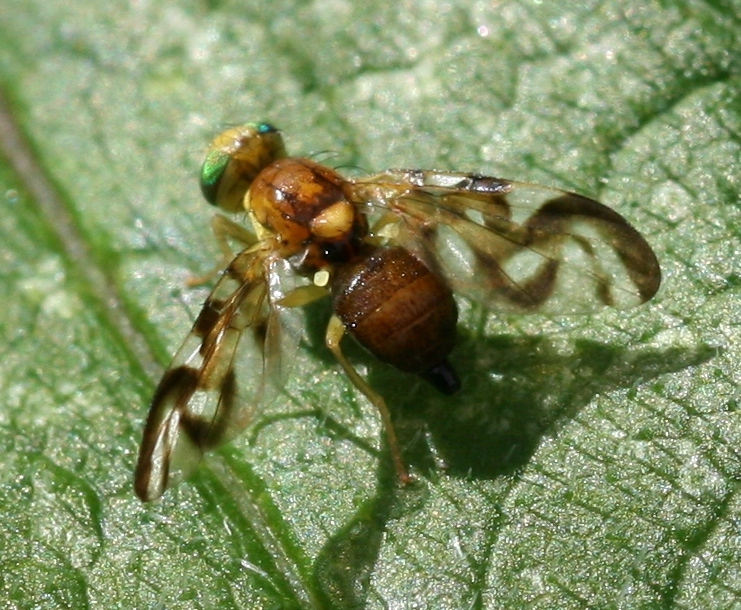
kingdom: Animalia
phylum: Arthropoda
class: Insecta
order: Diptera
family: Tephritidae
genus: Euleia
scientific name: Euleia heraclei
